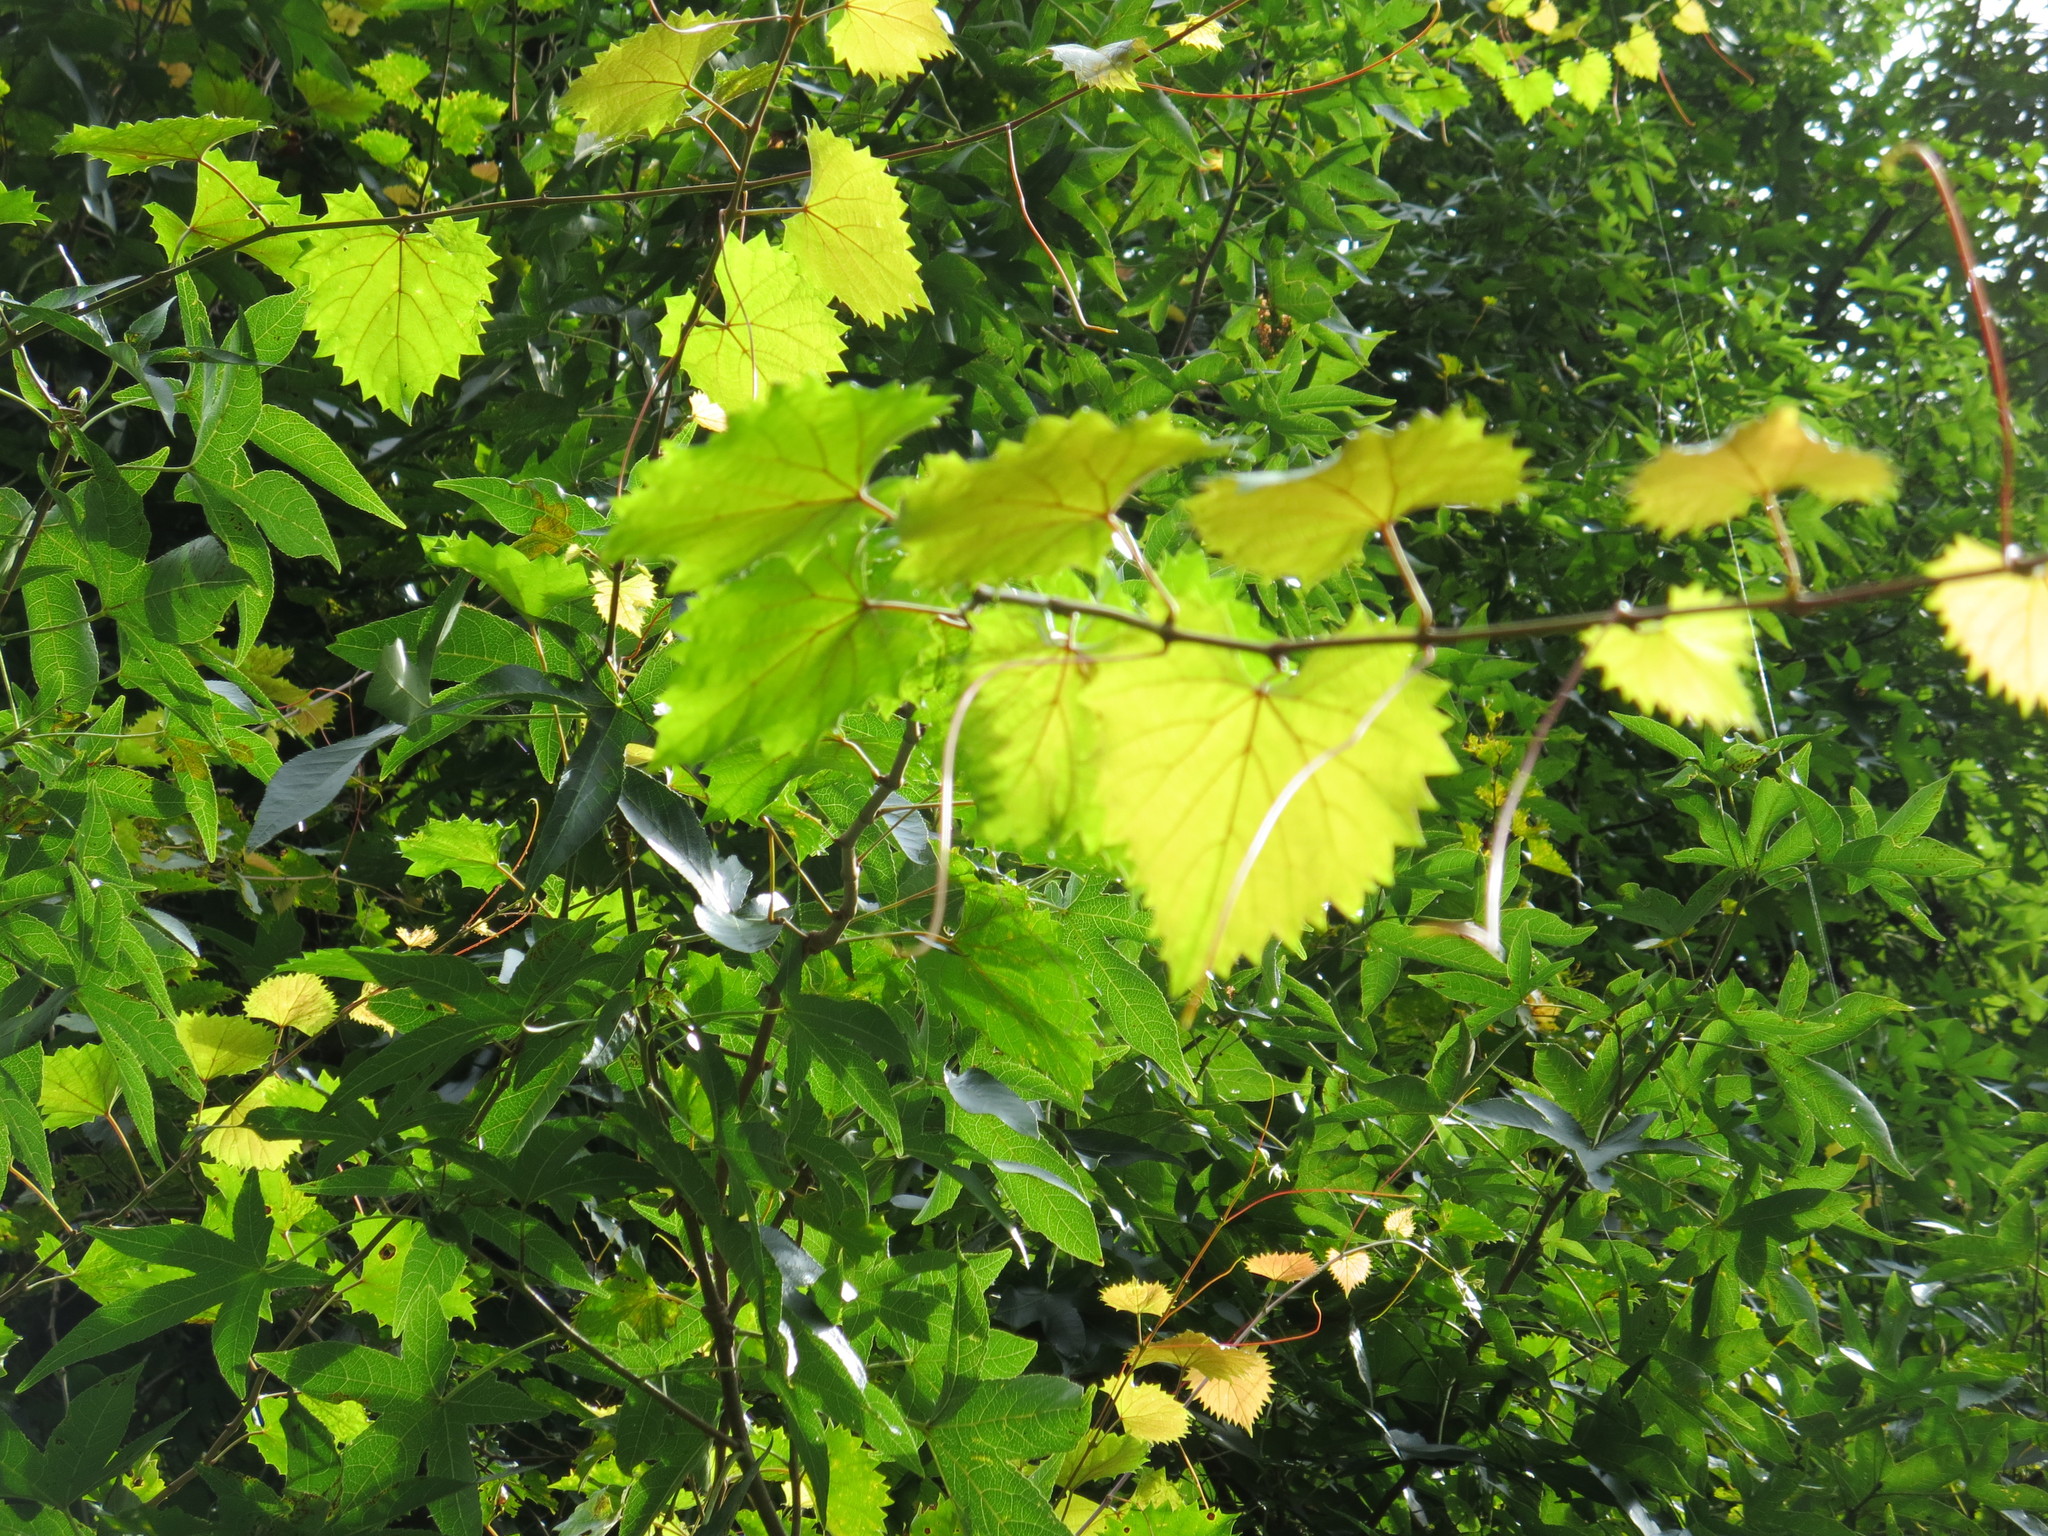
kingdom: Plantae
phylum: Tracheophyta
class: Magnoliopsida
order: Vitales
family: Vitaceae
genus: Vitis
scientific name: Vitis rotundifolia
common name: Muscadine grape
